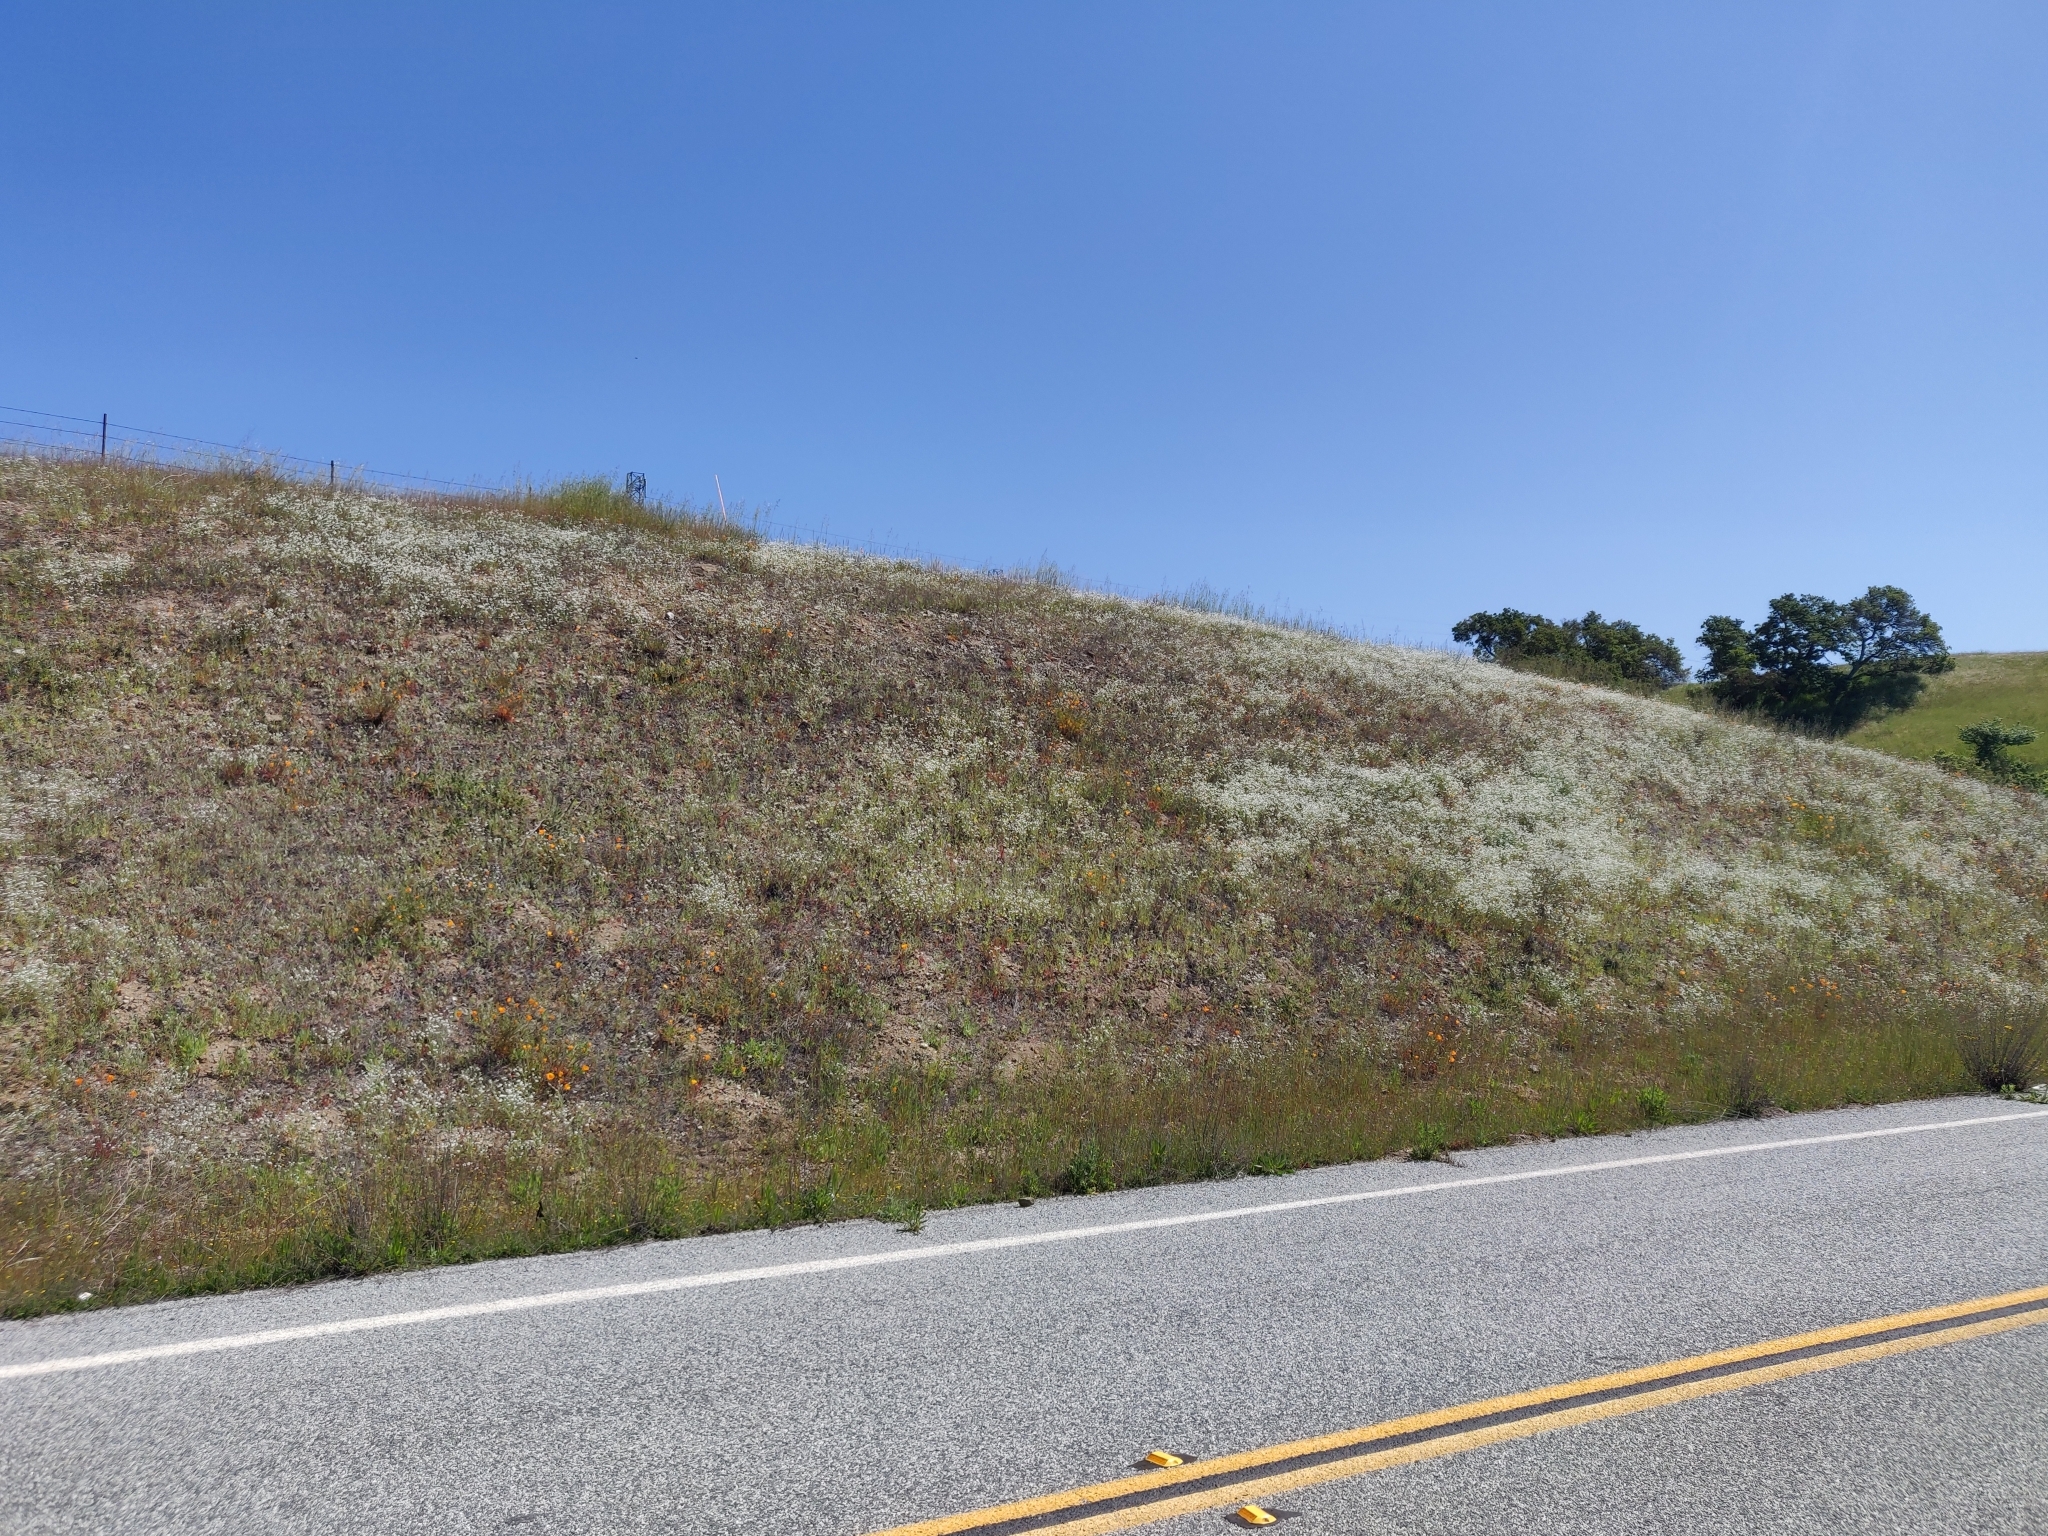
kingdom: Plantae
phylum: Tracheophyta
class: Magnoliopsida
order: Caryophyllales
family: Caryophyllaceae
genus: Silene
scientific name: Silene gallica
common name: Small-flowered catchfly
